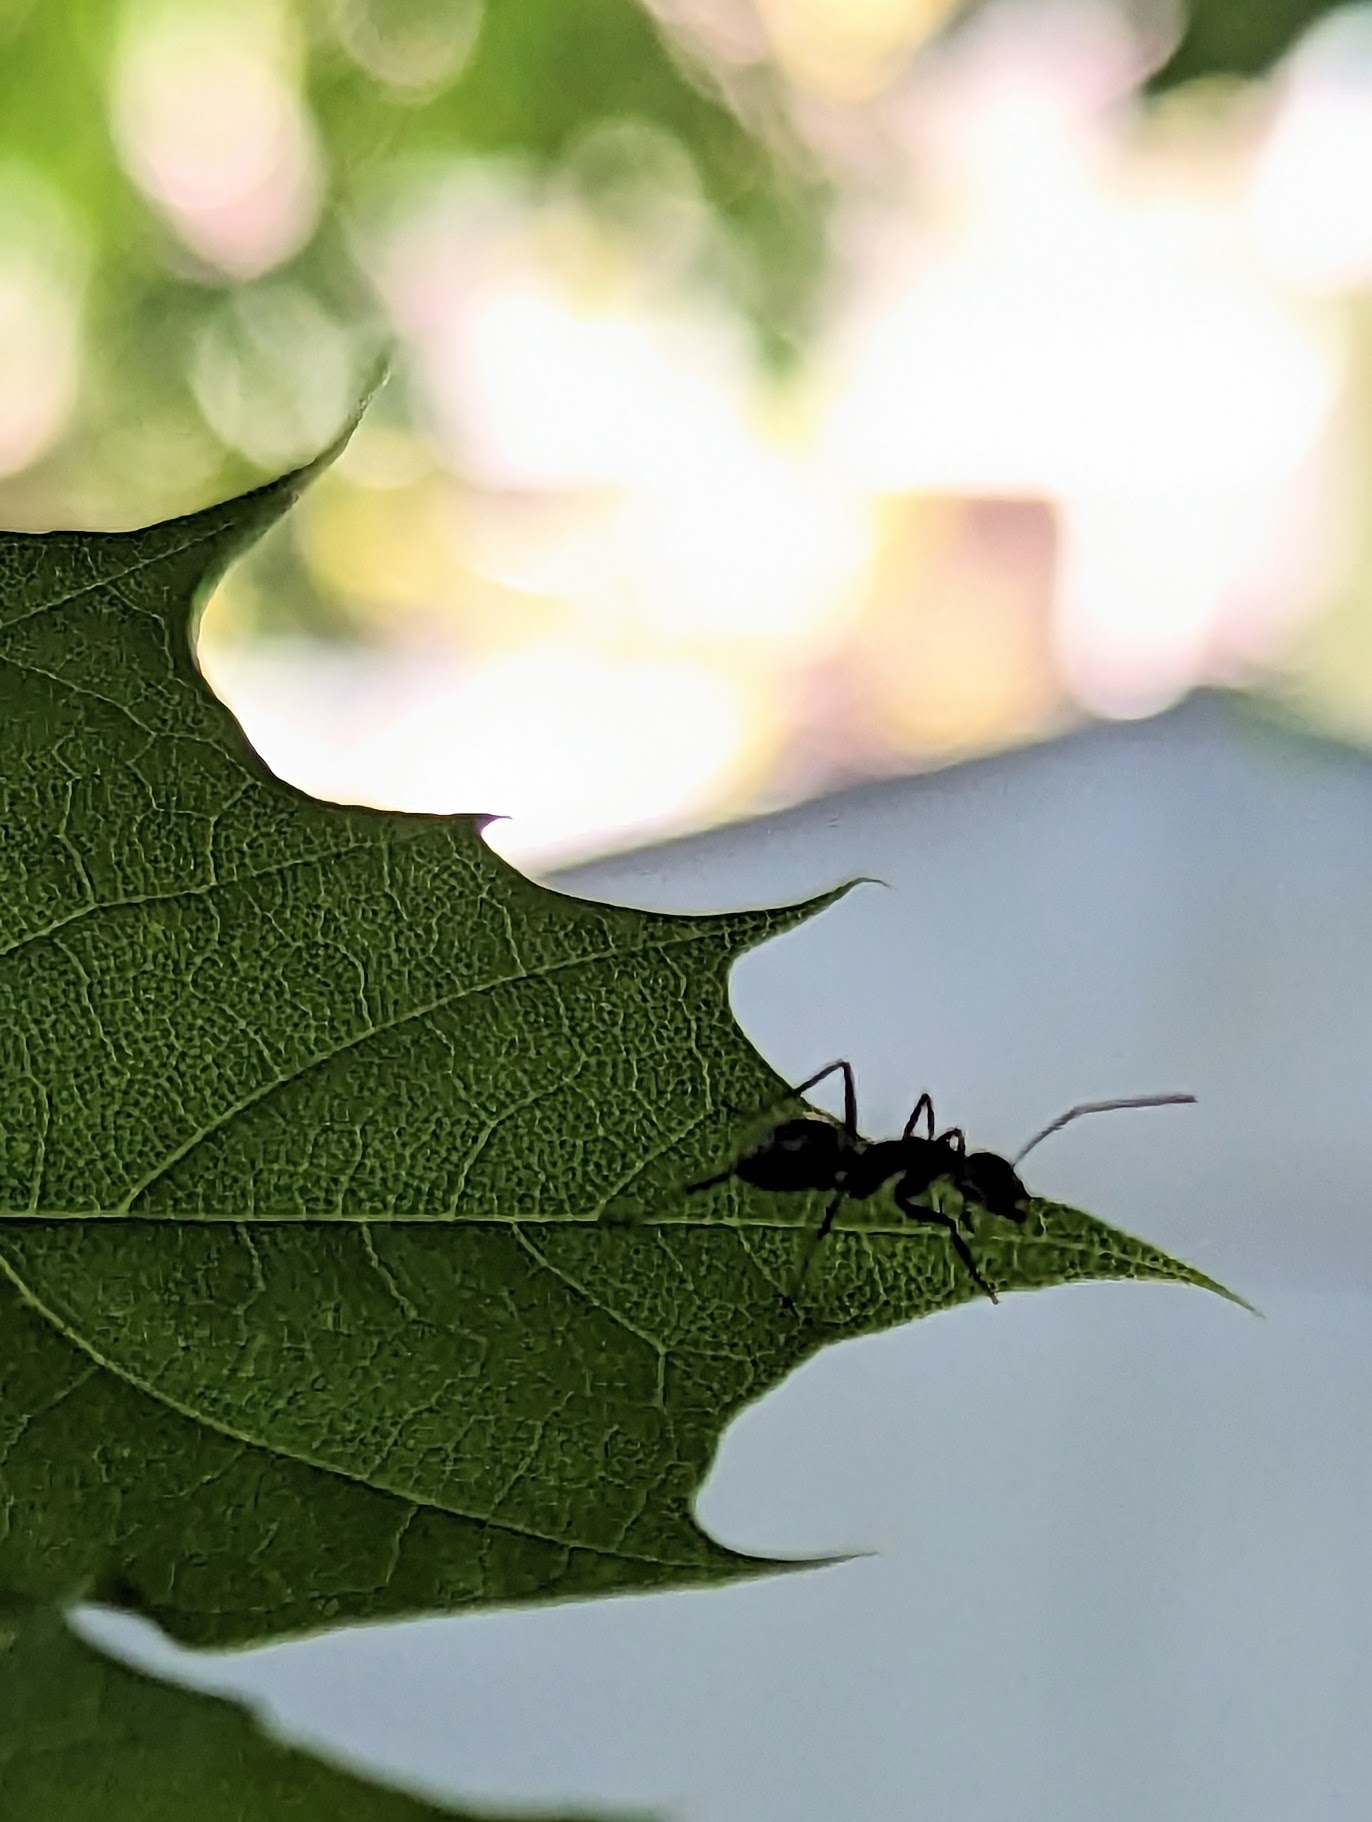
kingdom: Animalia
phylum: Arthropoda
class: Insecta
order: Hymenoptera
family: Formicidae
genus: Camponotus
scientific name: Camponotus pennsylvanicus
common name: Black carpenter ant
